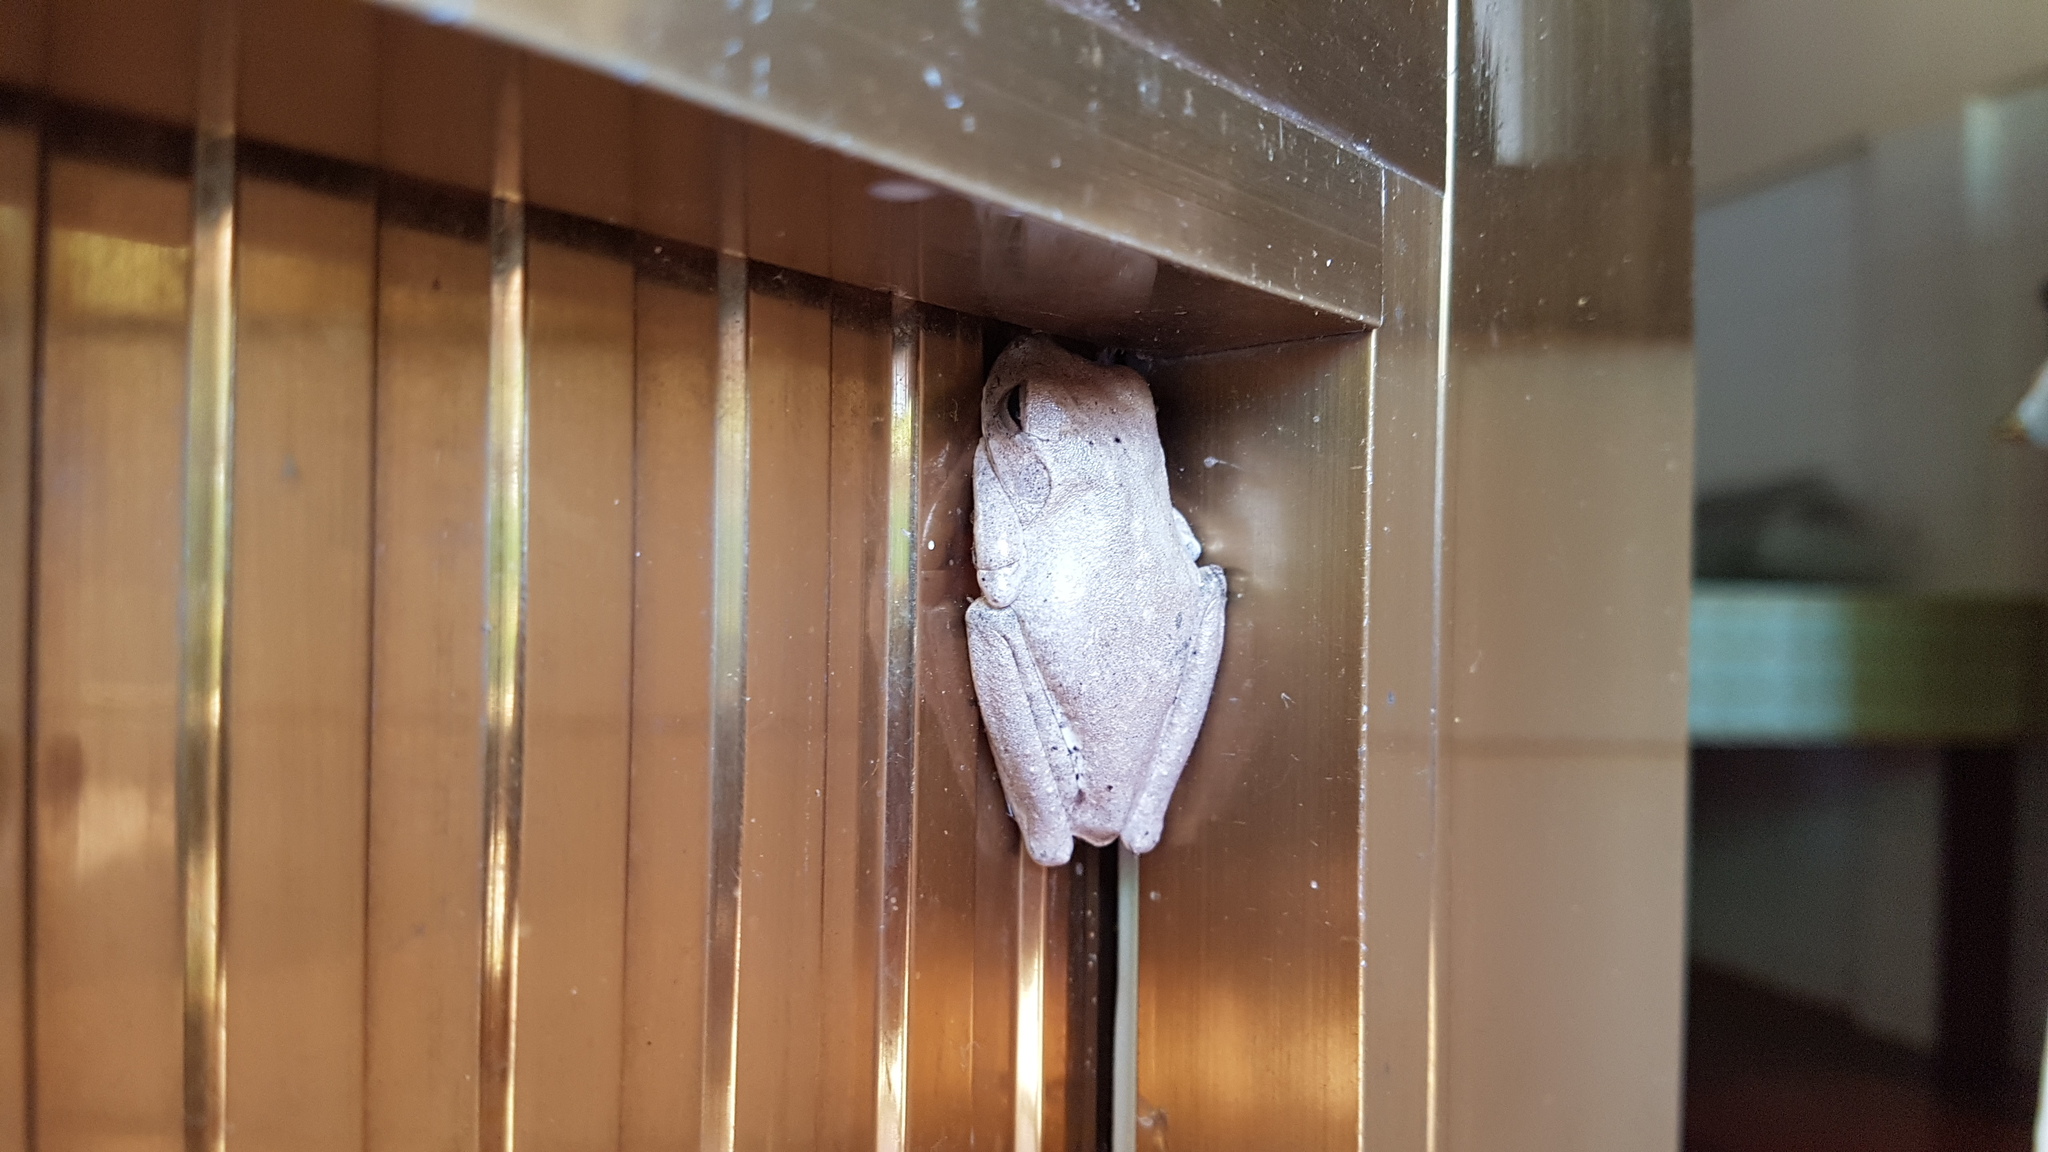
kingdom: Animalia
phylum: Chordata
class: Amphibia
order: Anura
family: Hylidae
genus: Boana
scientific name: Boana platanera
